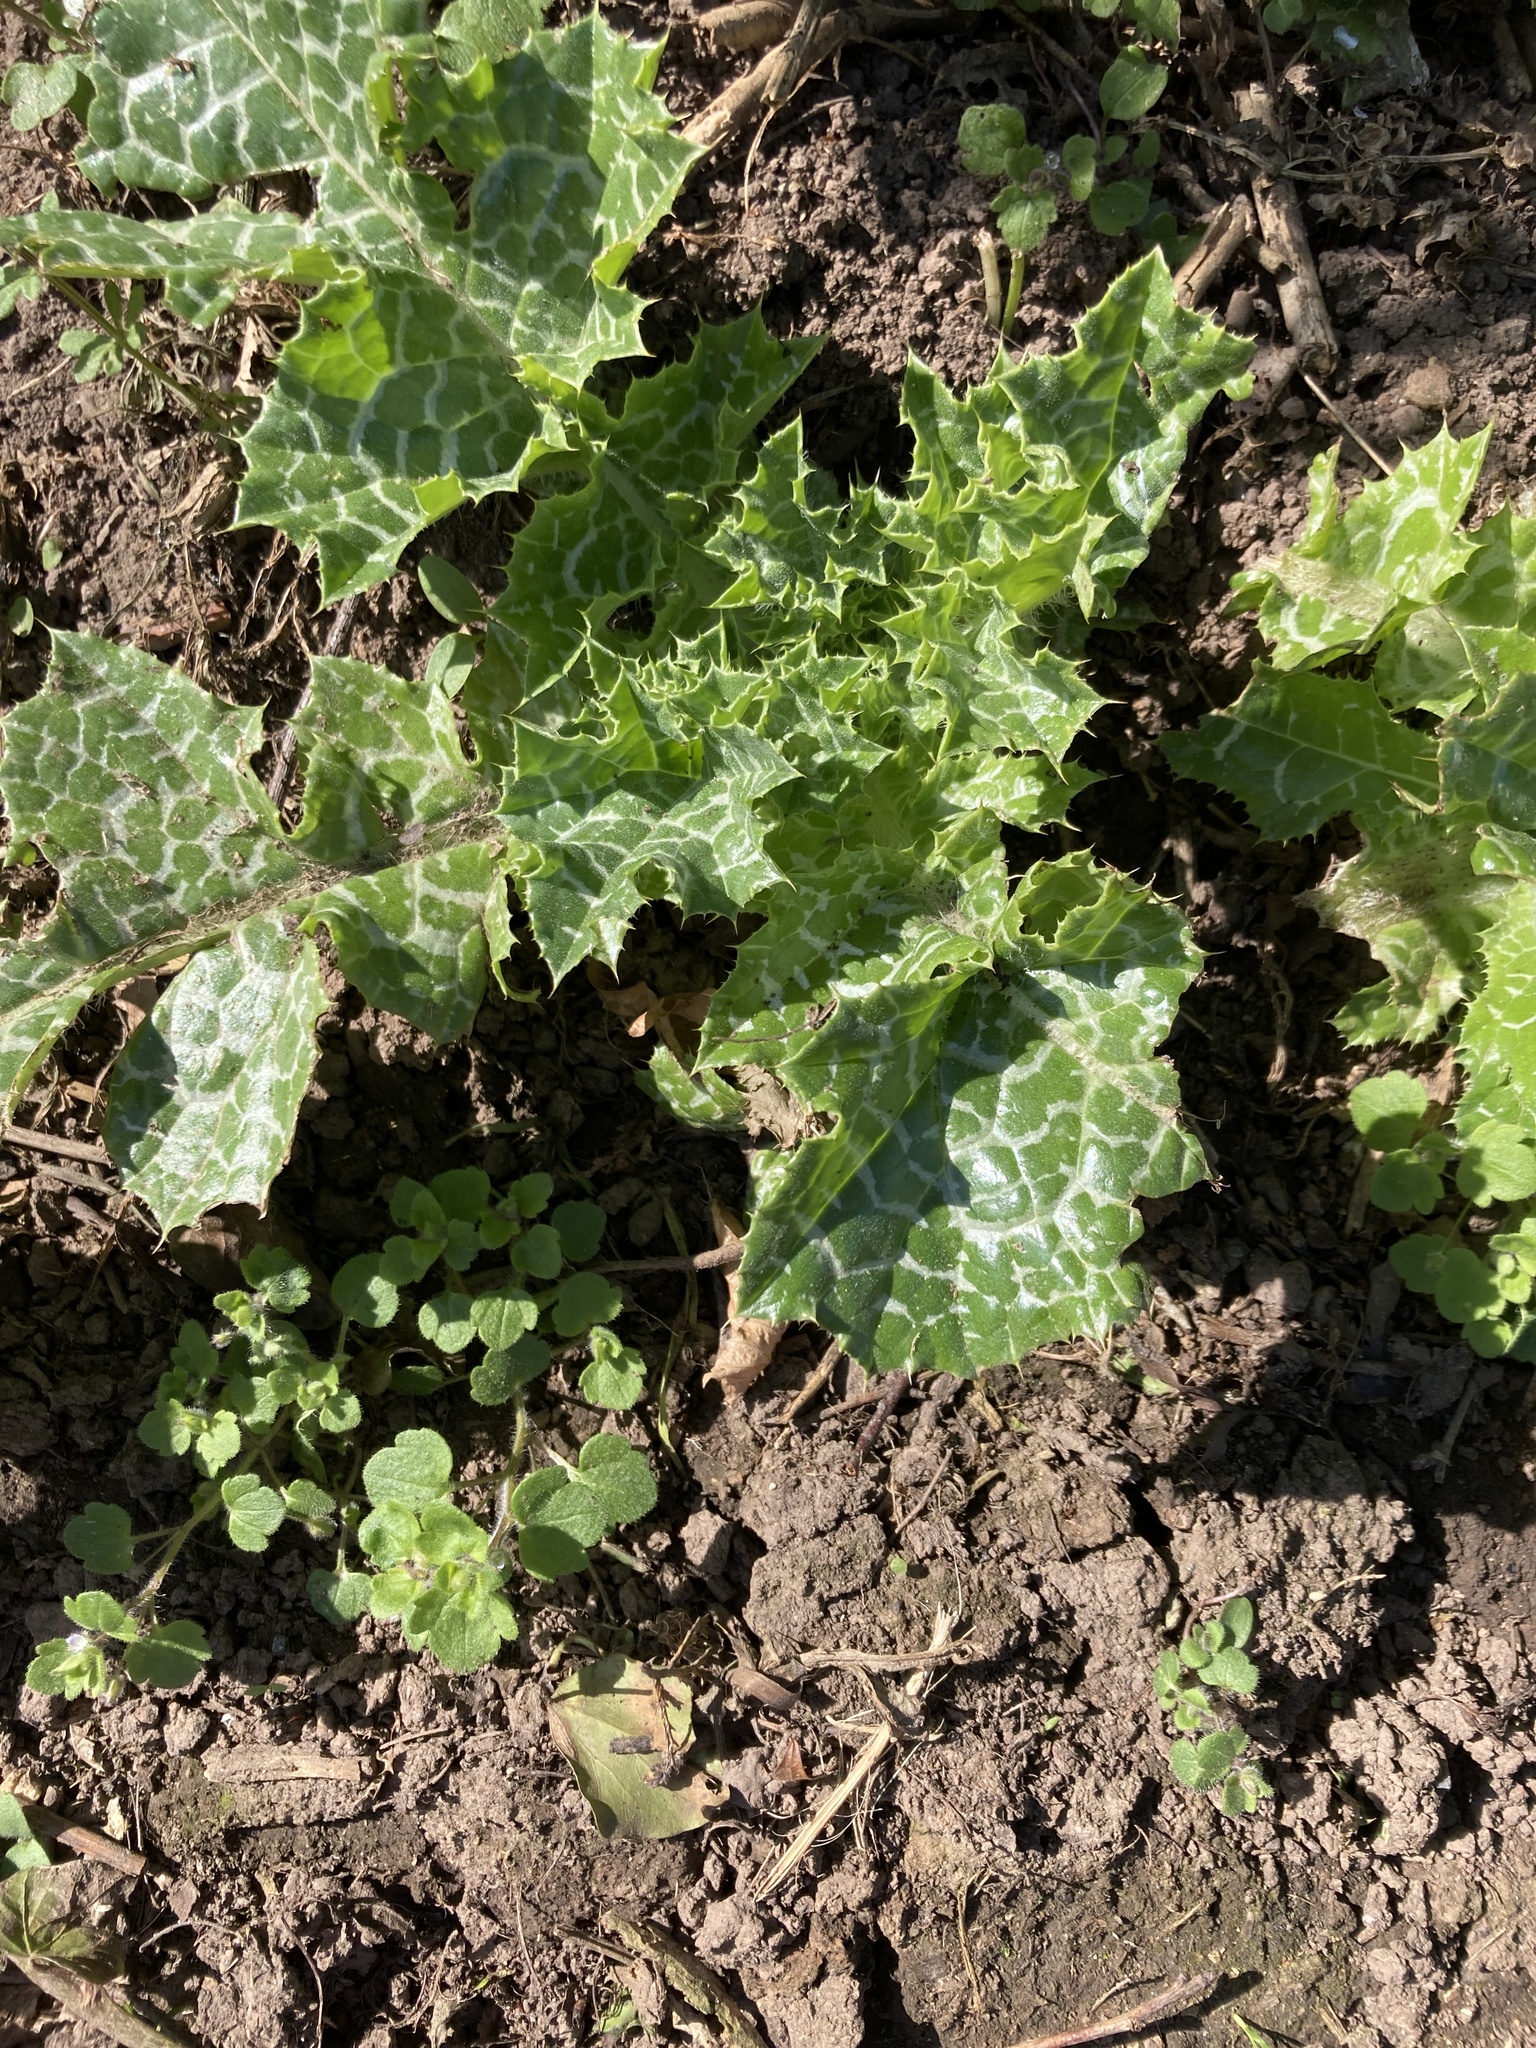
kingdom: Plantae
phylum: Tracheophyta
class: Magnoliopsida
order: Asterales
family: Asteraceae
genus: Silybum
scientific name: Silybum marianum
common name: Milk thistle
